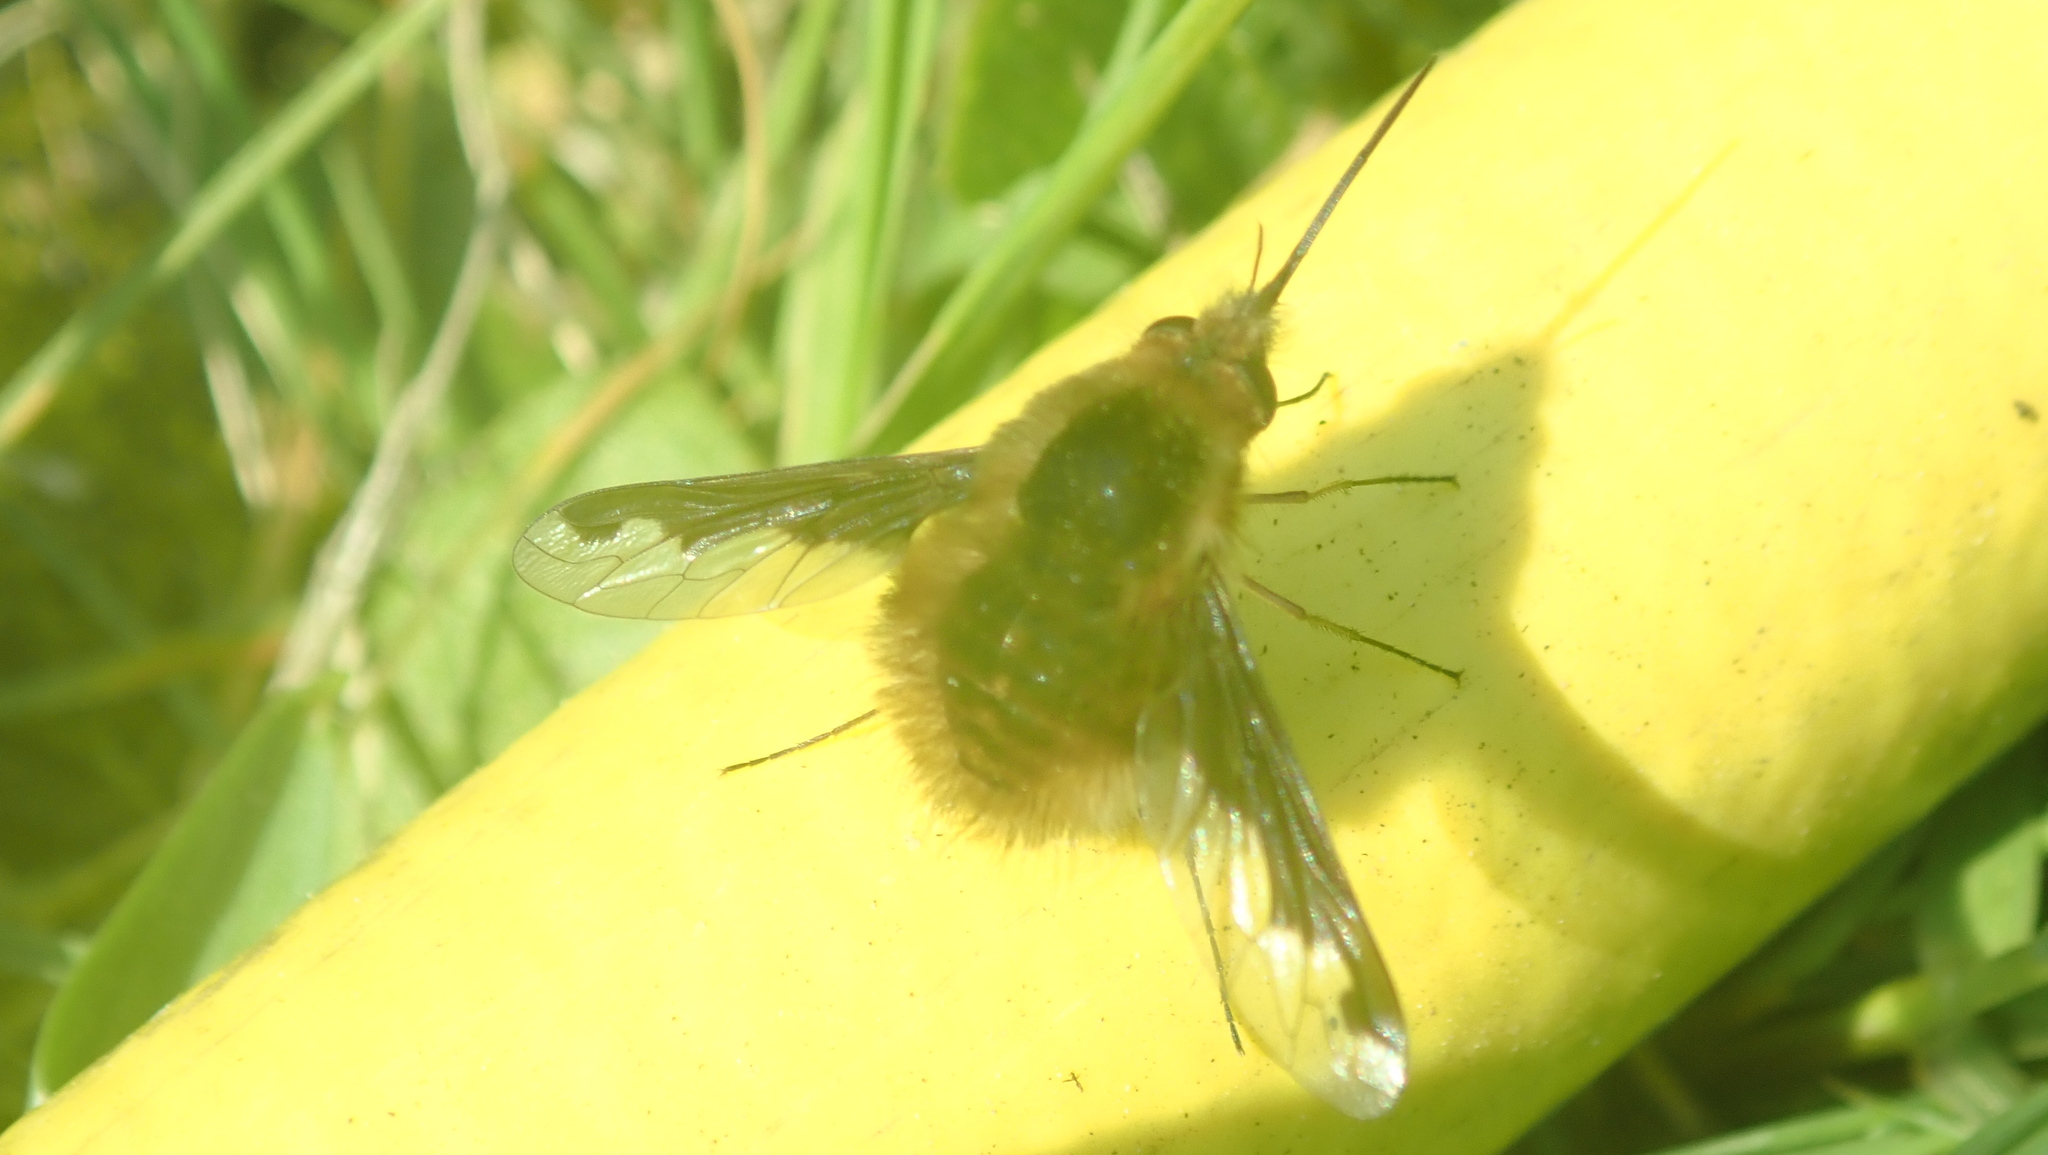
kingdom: Animalia
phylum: Arthropoda
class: Insecta
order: Diptera
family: Bombyliidae
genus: Bombylius
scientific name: Bombylius major
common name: Bee fly
